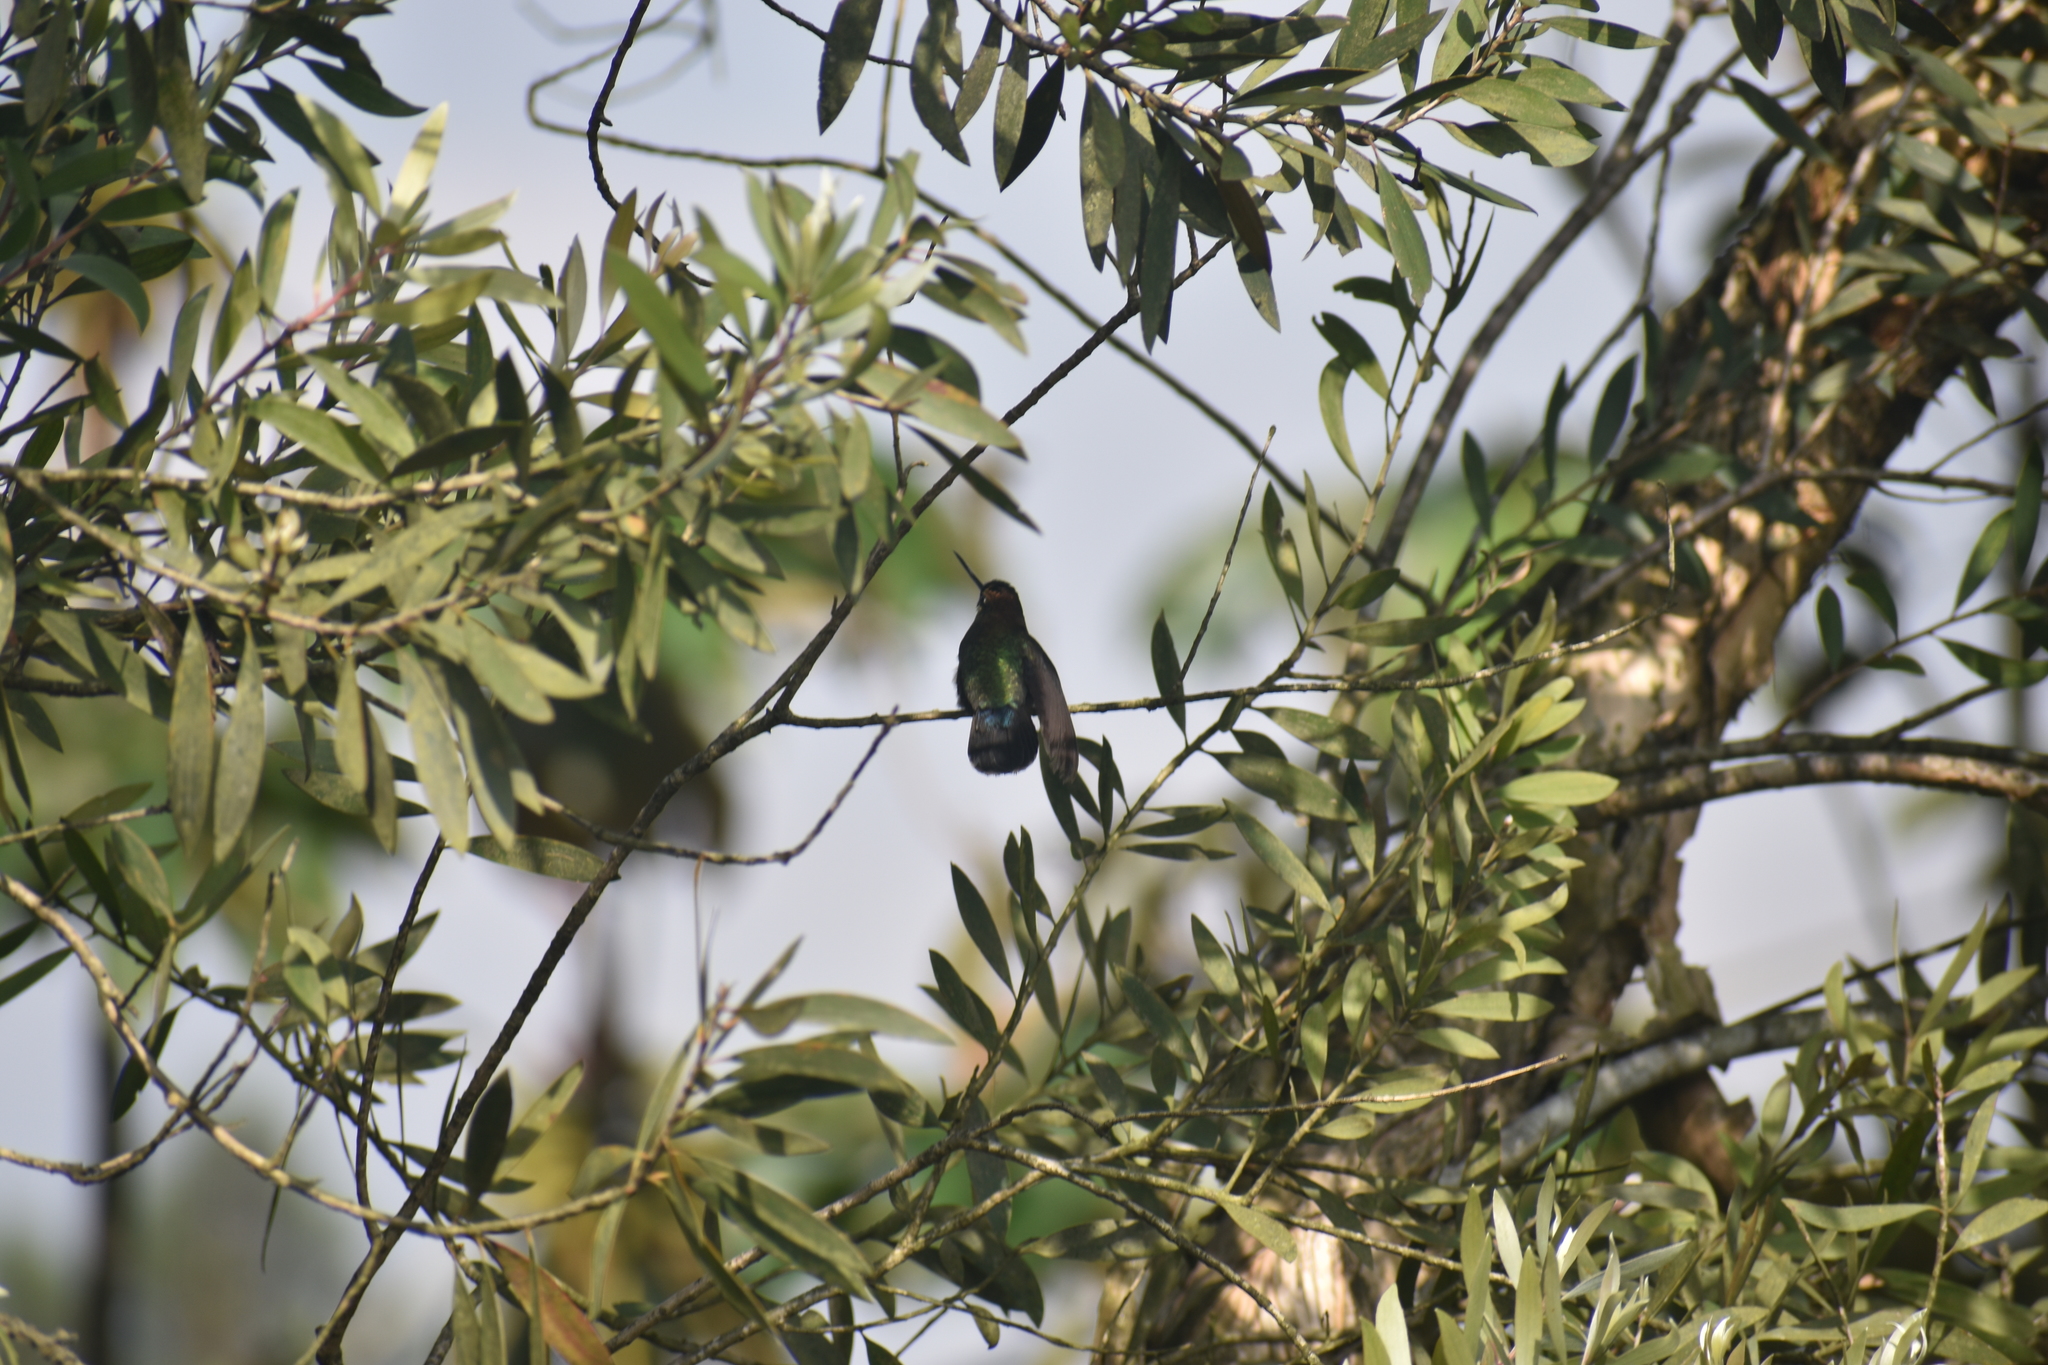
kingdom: Animalia
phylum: Chordata
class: Aves
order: Apodiformes
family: Trochilidae
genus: Doryfera
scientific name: Doryfera ludovicae
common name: Green-fronted lancebill
